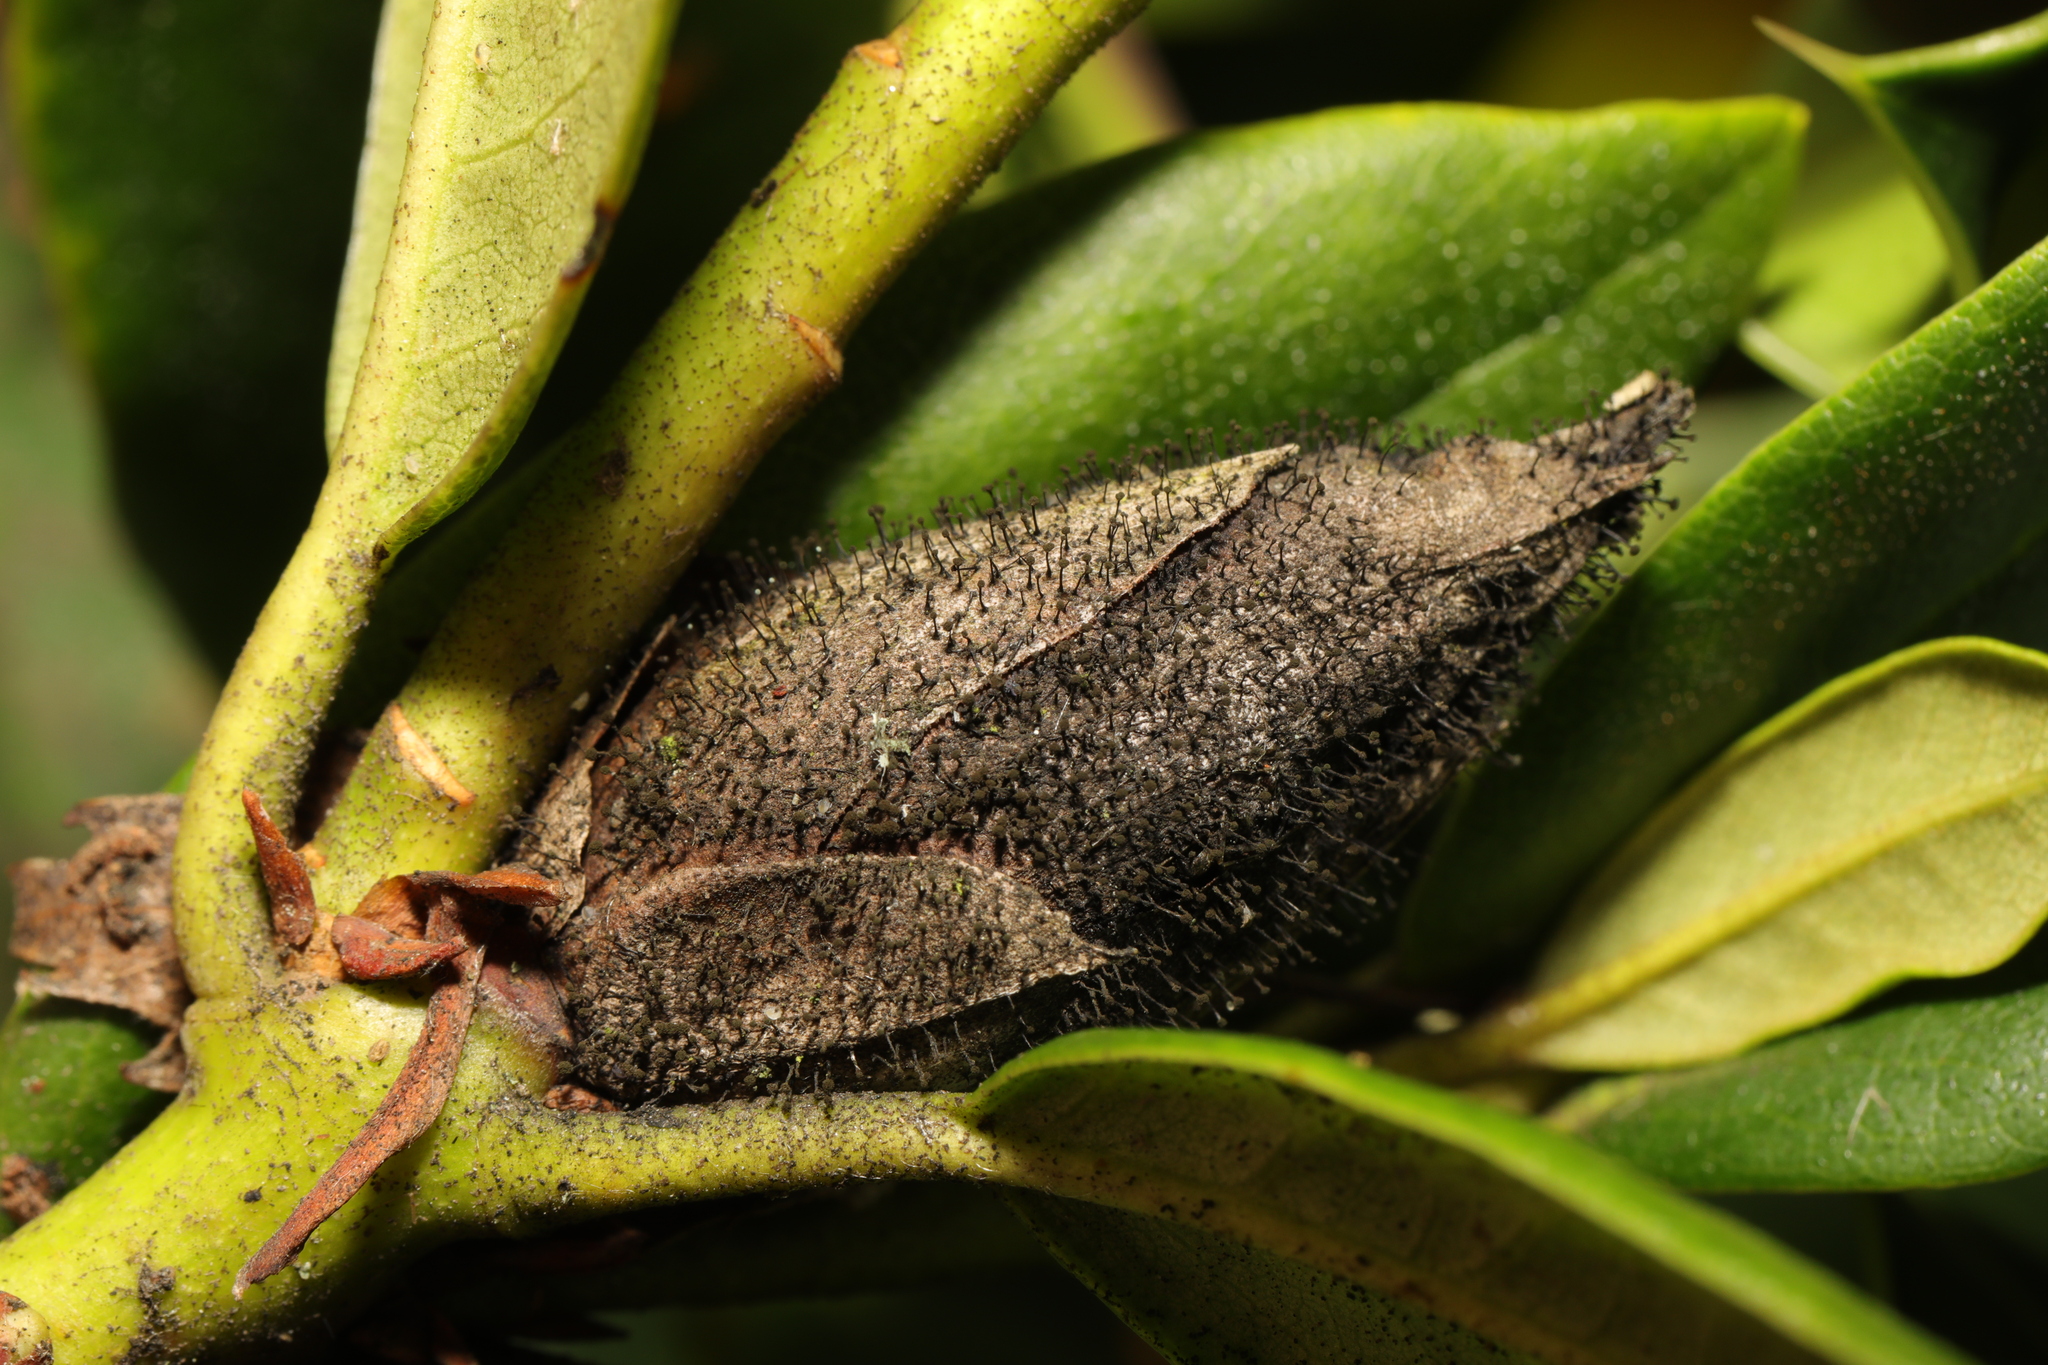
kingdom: Fungi
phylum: Ascomycota
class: Dothideomycetes
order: Pleosporales
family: Melanommataceae
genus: Seifertia
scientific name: Seifertia azaleae
